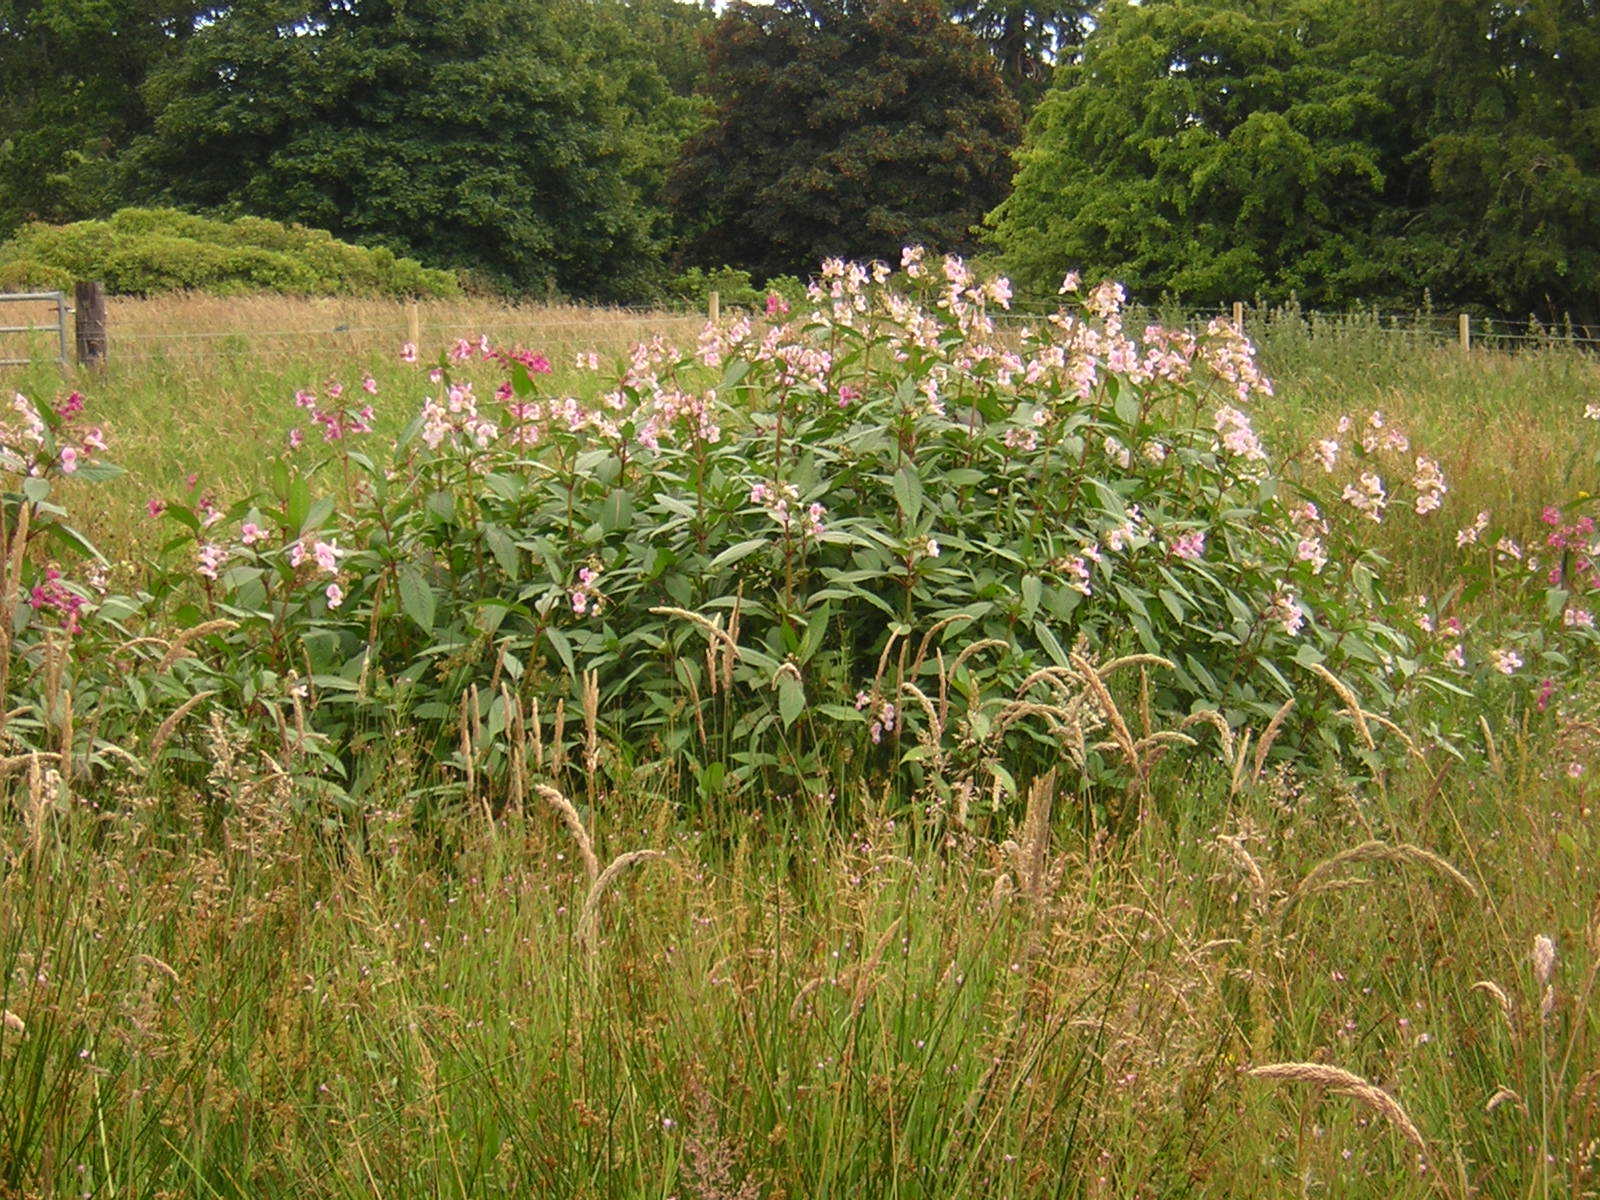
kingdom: Plantae
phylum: Tracheophyta
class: Magnoliopsida
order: Ericales
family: Balsaminaceae
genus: Impatiens
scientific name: Impatiens glandulifera
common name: Himalayan balsam
